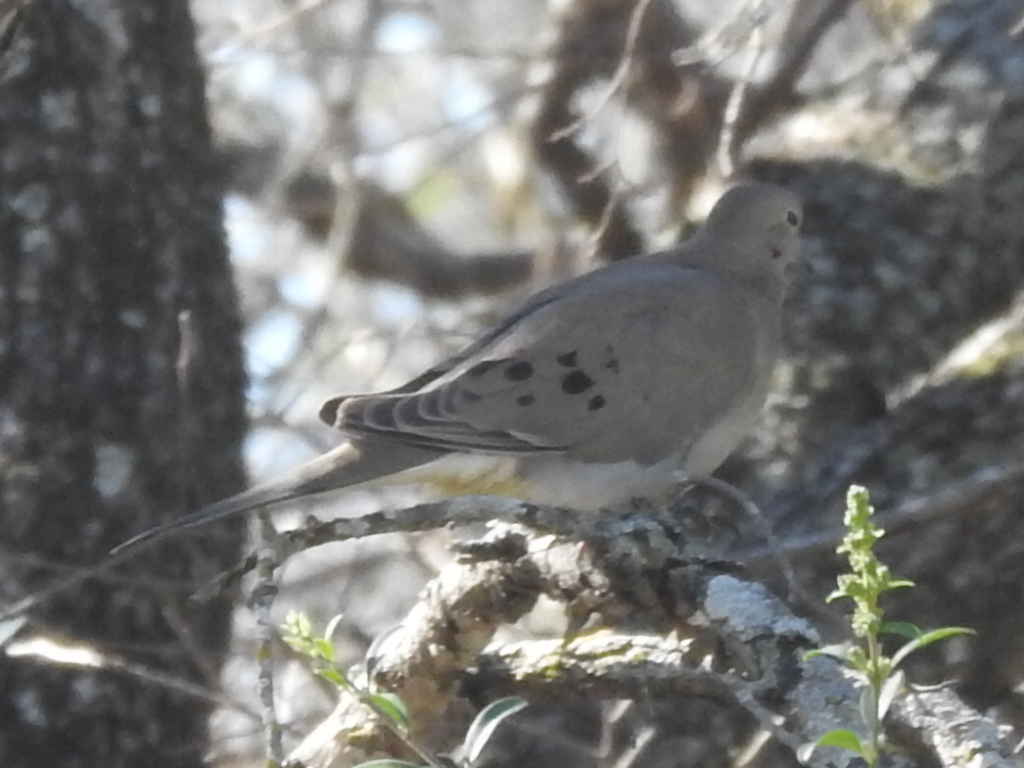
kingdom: Animalia
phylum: Chordata
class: Aves
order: Columbiformes
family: Columbidae
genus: Zenaida
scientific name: Zenaida macroura
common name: Mourning dove
